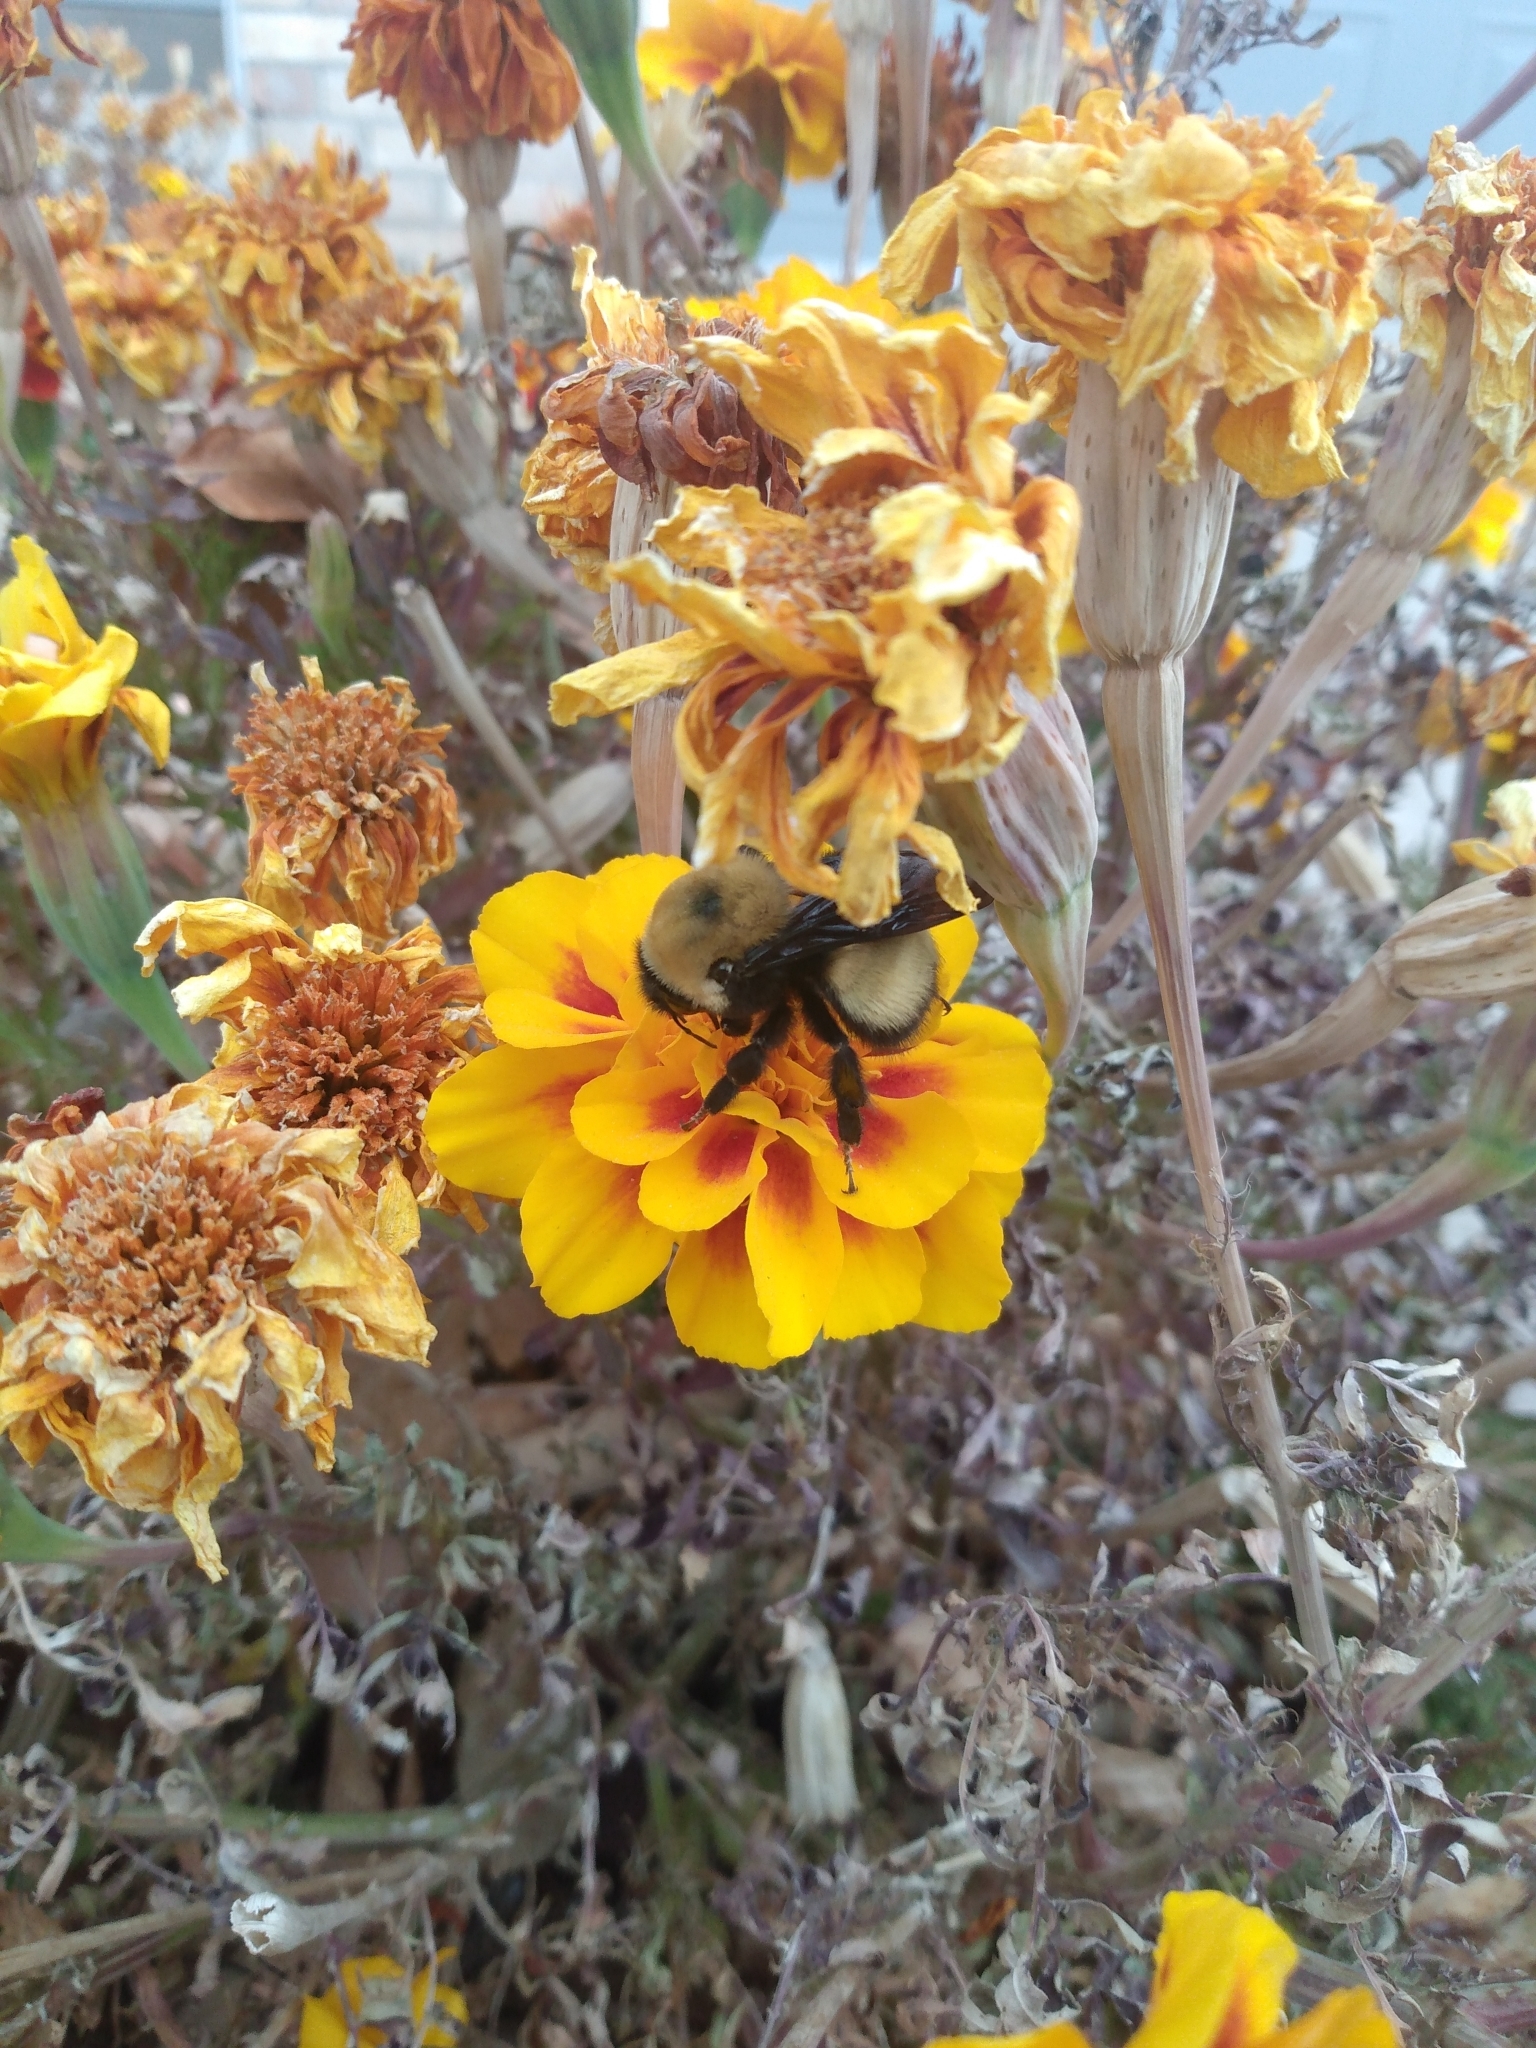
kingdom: Animalia
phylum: Arthropoda
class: Insecta
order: Hymenoptera
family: Apidae
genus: Bombus
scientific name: Bombus nevadensis
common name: Nevada bumble bee
